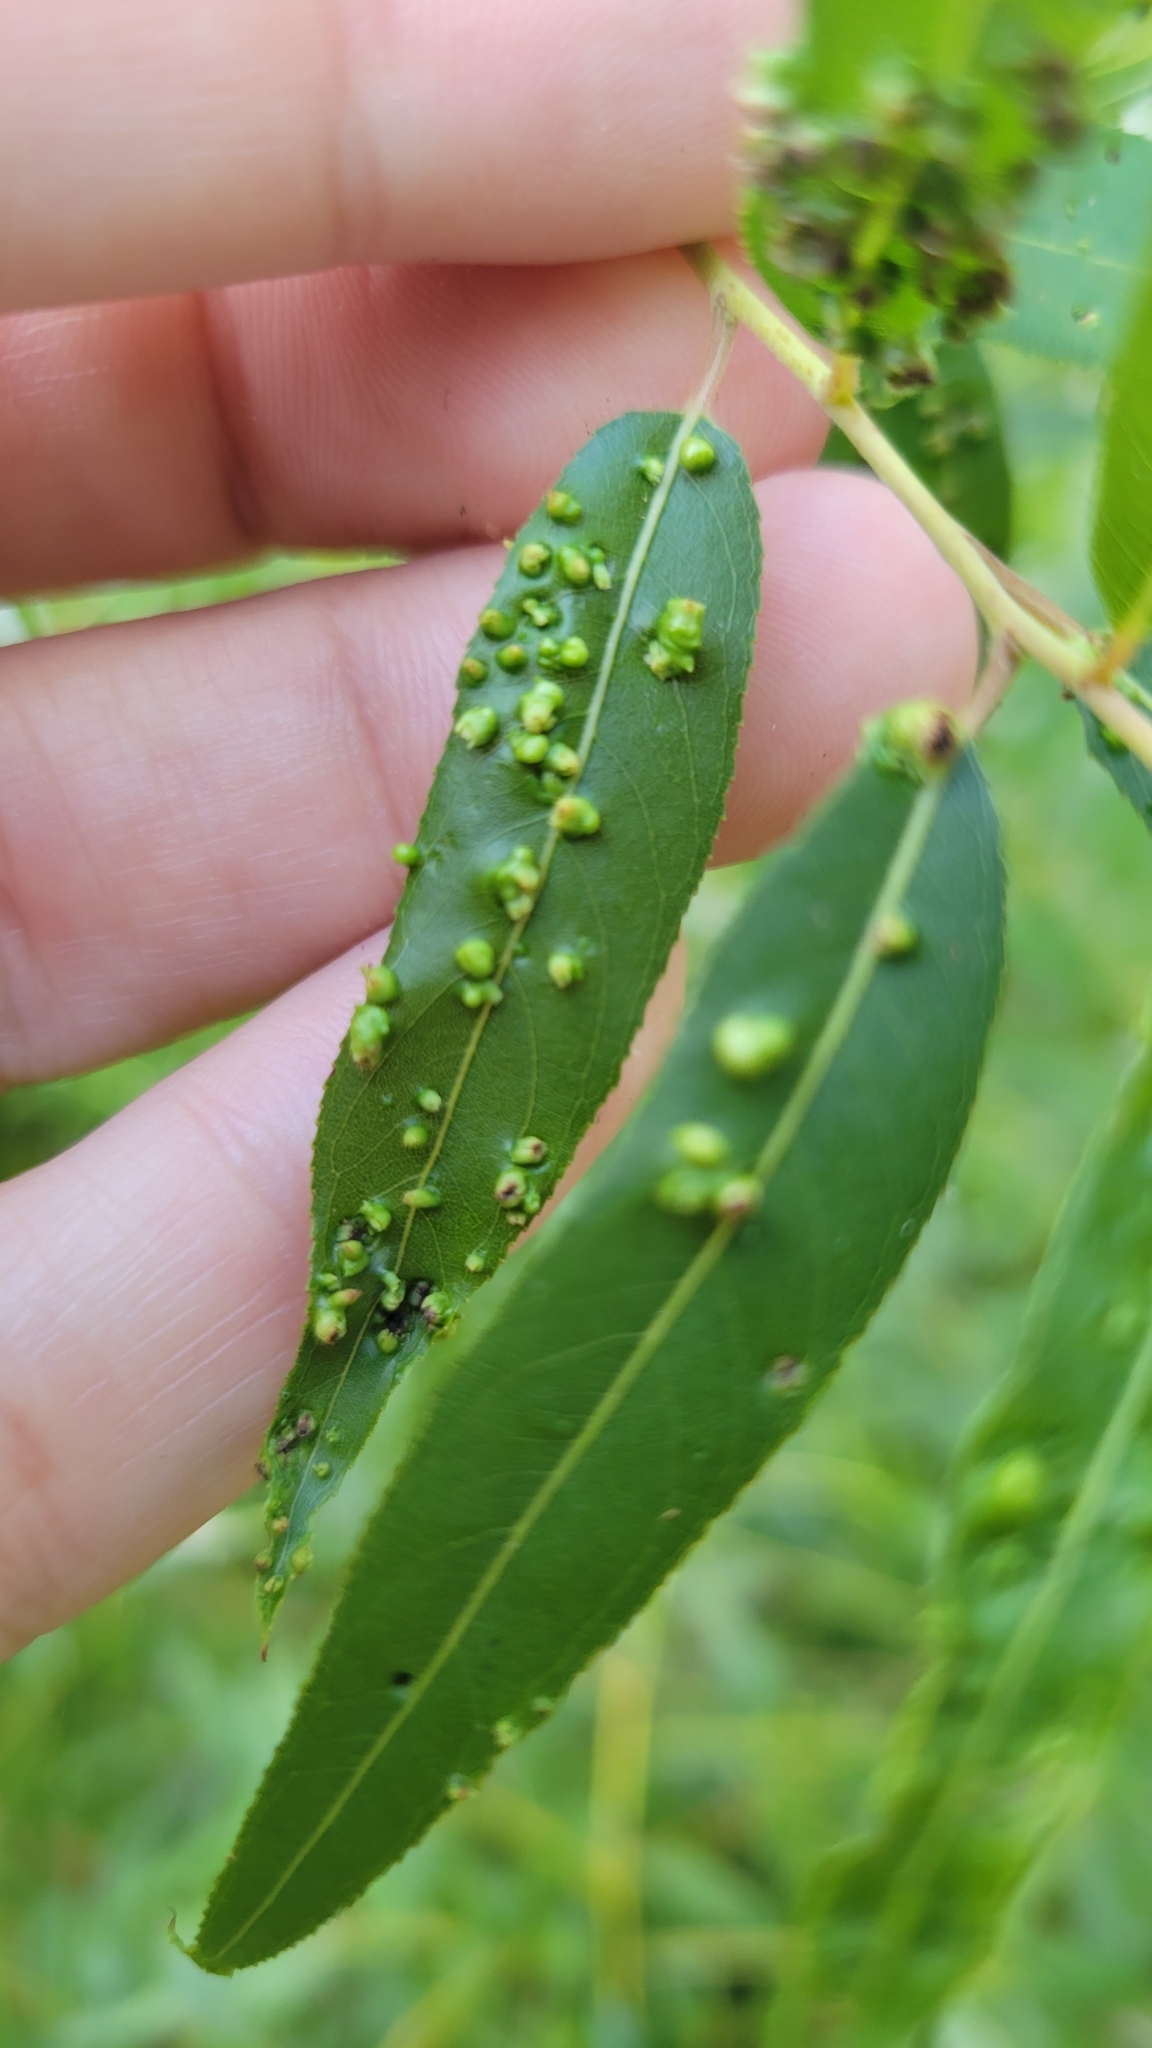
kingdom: Animalia
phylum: Arthropoda
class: Arachnida
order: Trombidiformes
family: Eriophyidae
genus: Aculus
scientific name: Aculus tetanothrix
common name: Willow bead gall mite
